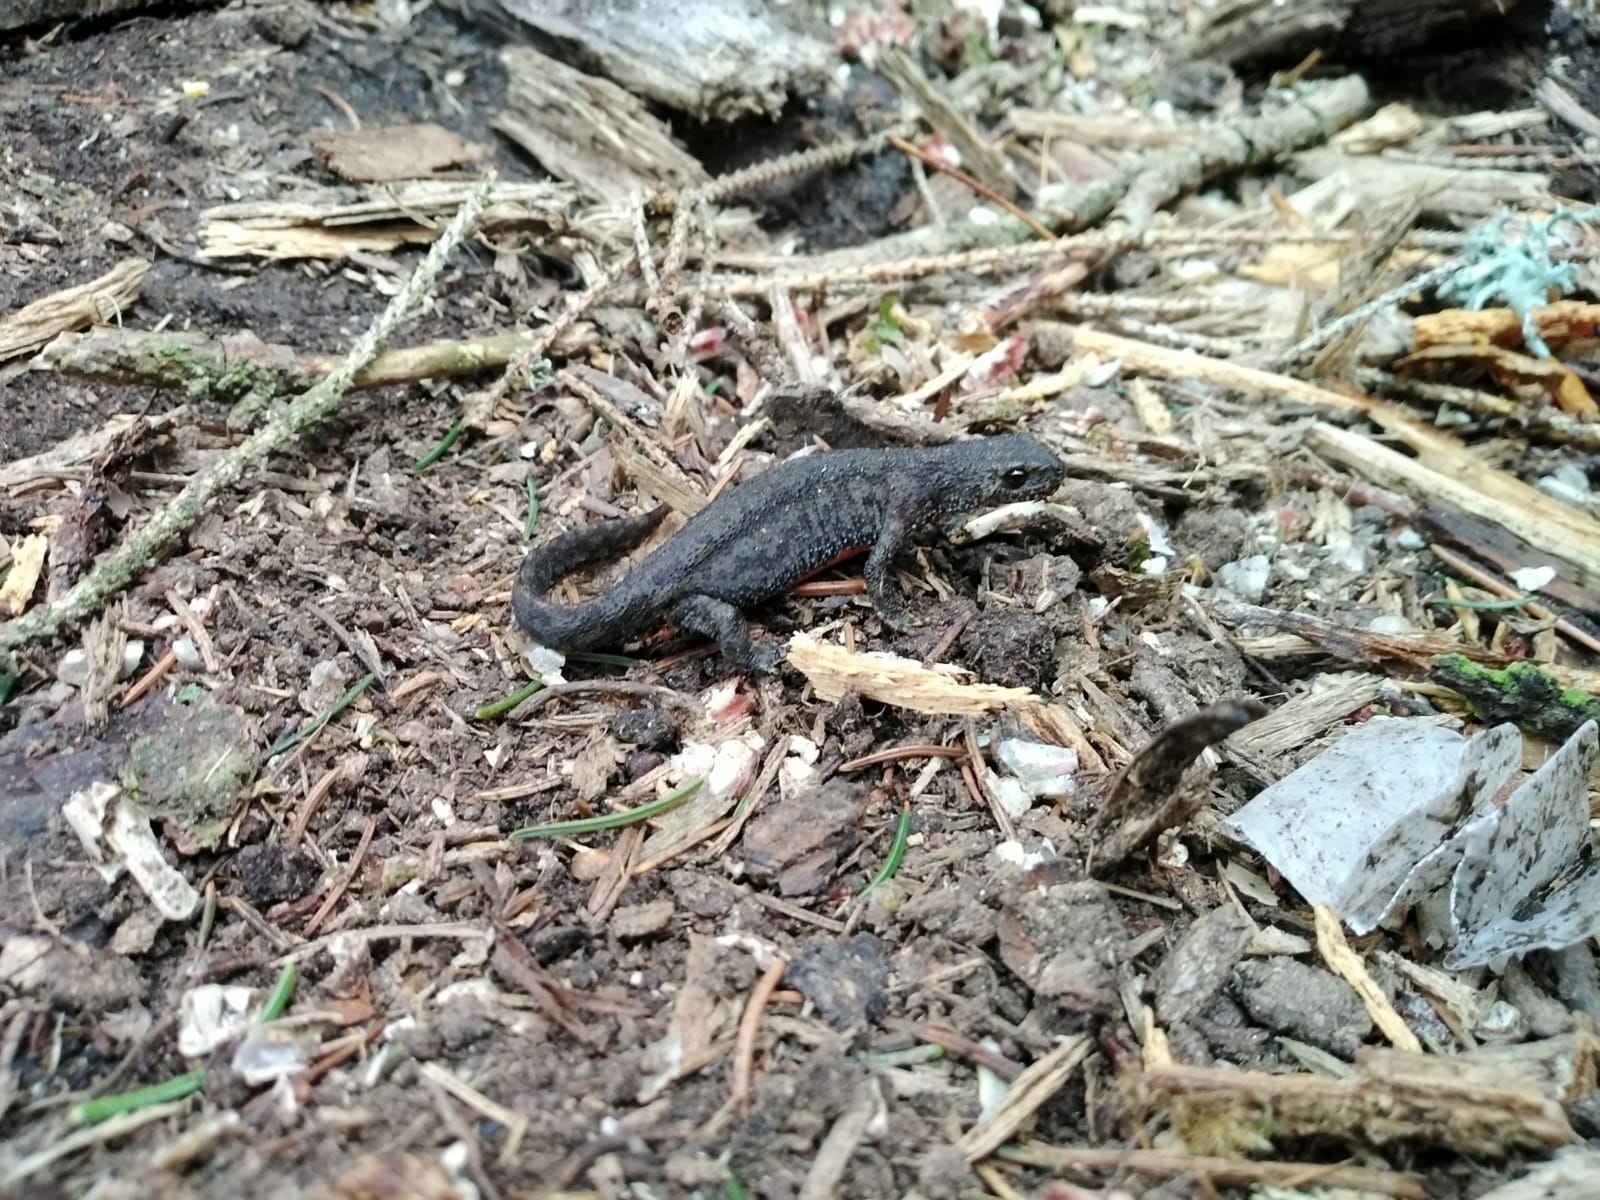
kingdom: Animalia
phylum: Chordata
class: Amphibia
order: Caudata
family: Salamandridae
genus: Ichthyosaura
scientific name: Ichthyosaura alpestris
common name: Alpine newt
